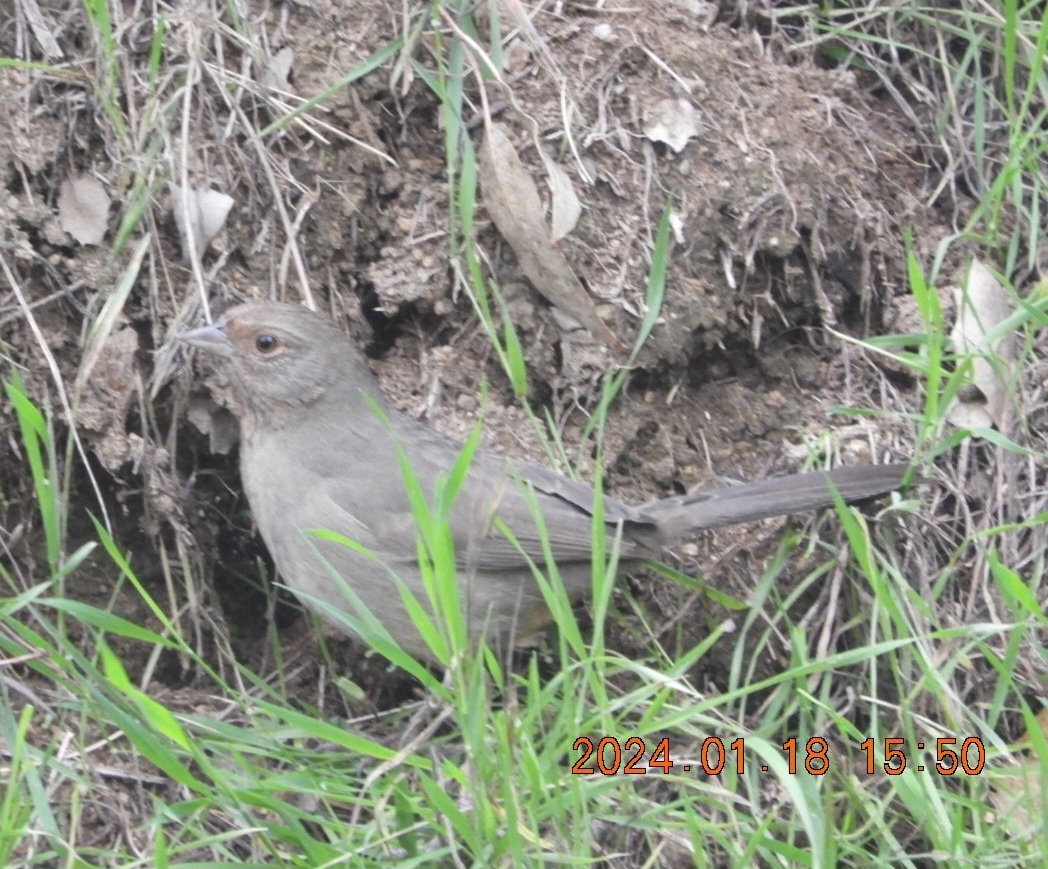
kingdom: Animalia
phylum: Chordata
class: Aves
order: Passeriformes
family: Passerellidae
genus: Melozone
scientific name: Melozone crissalis
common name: California towhee
